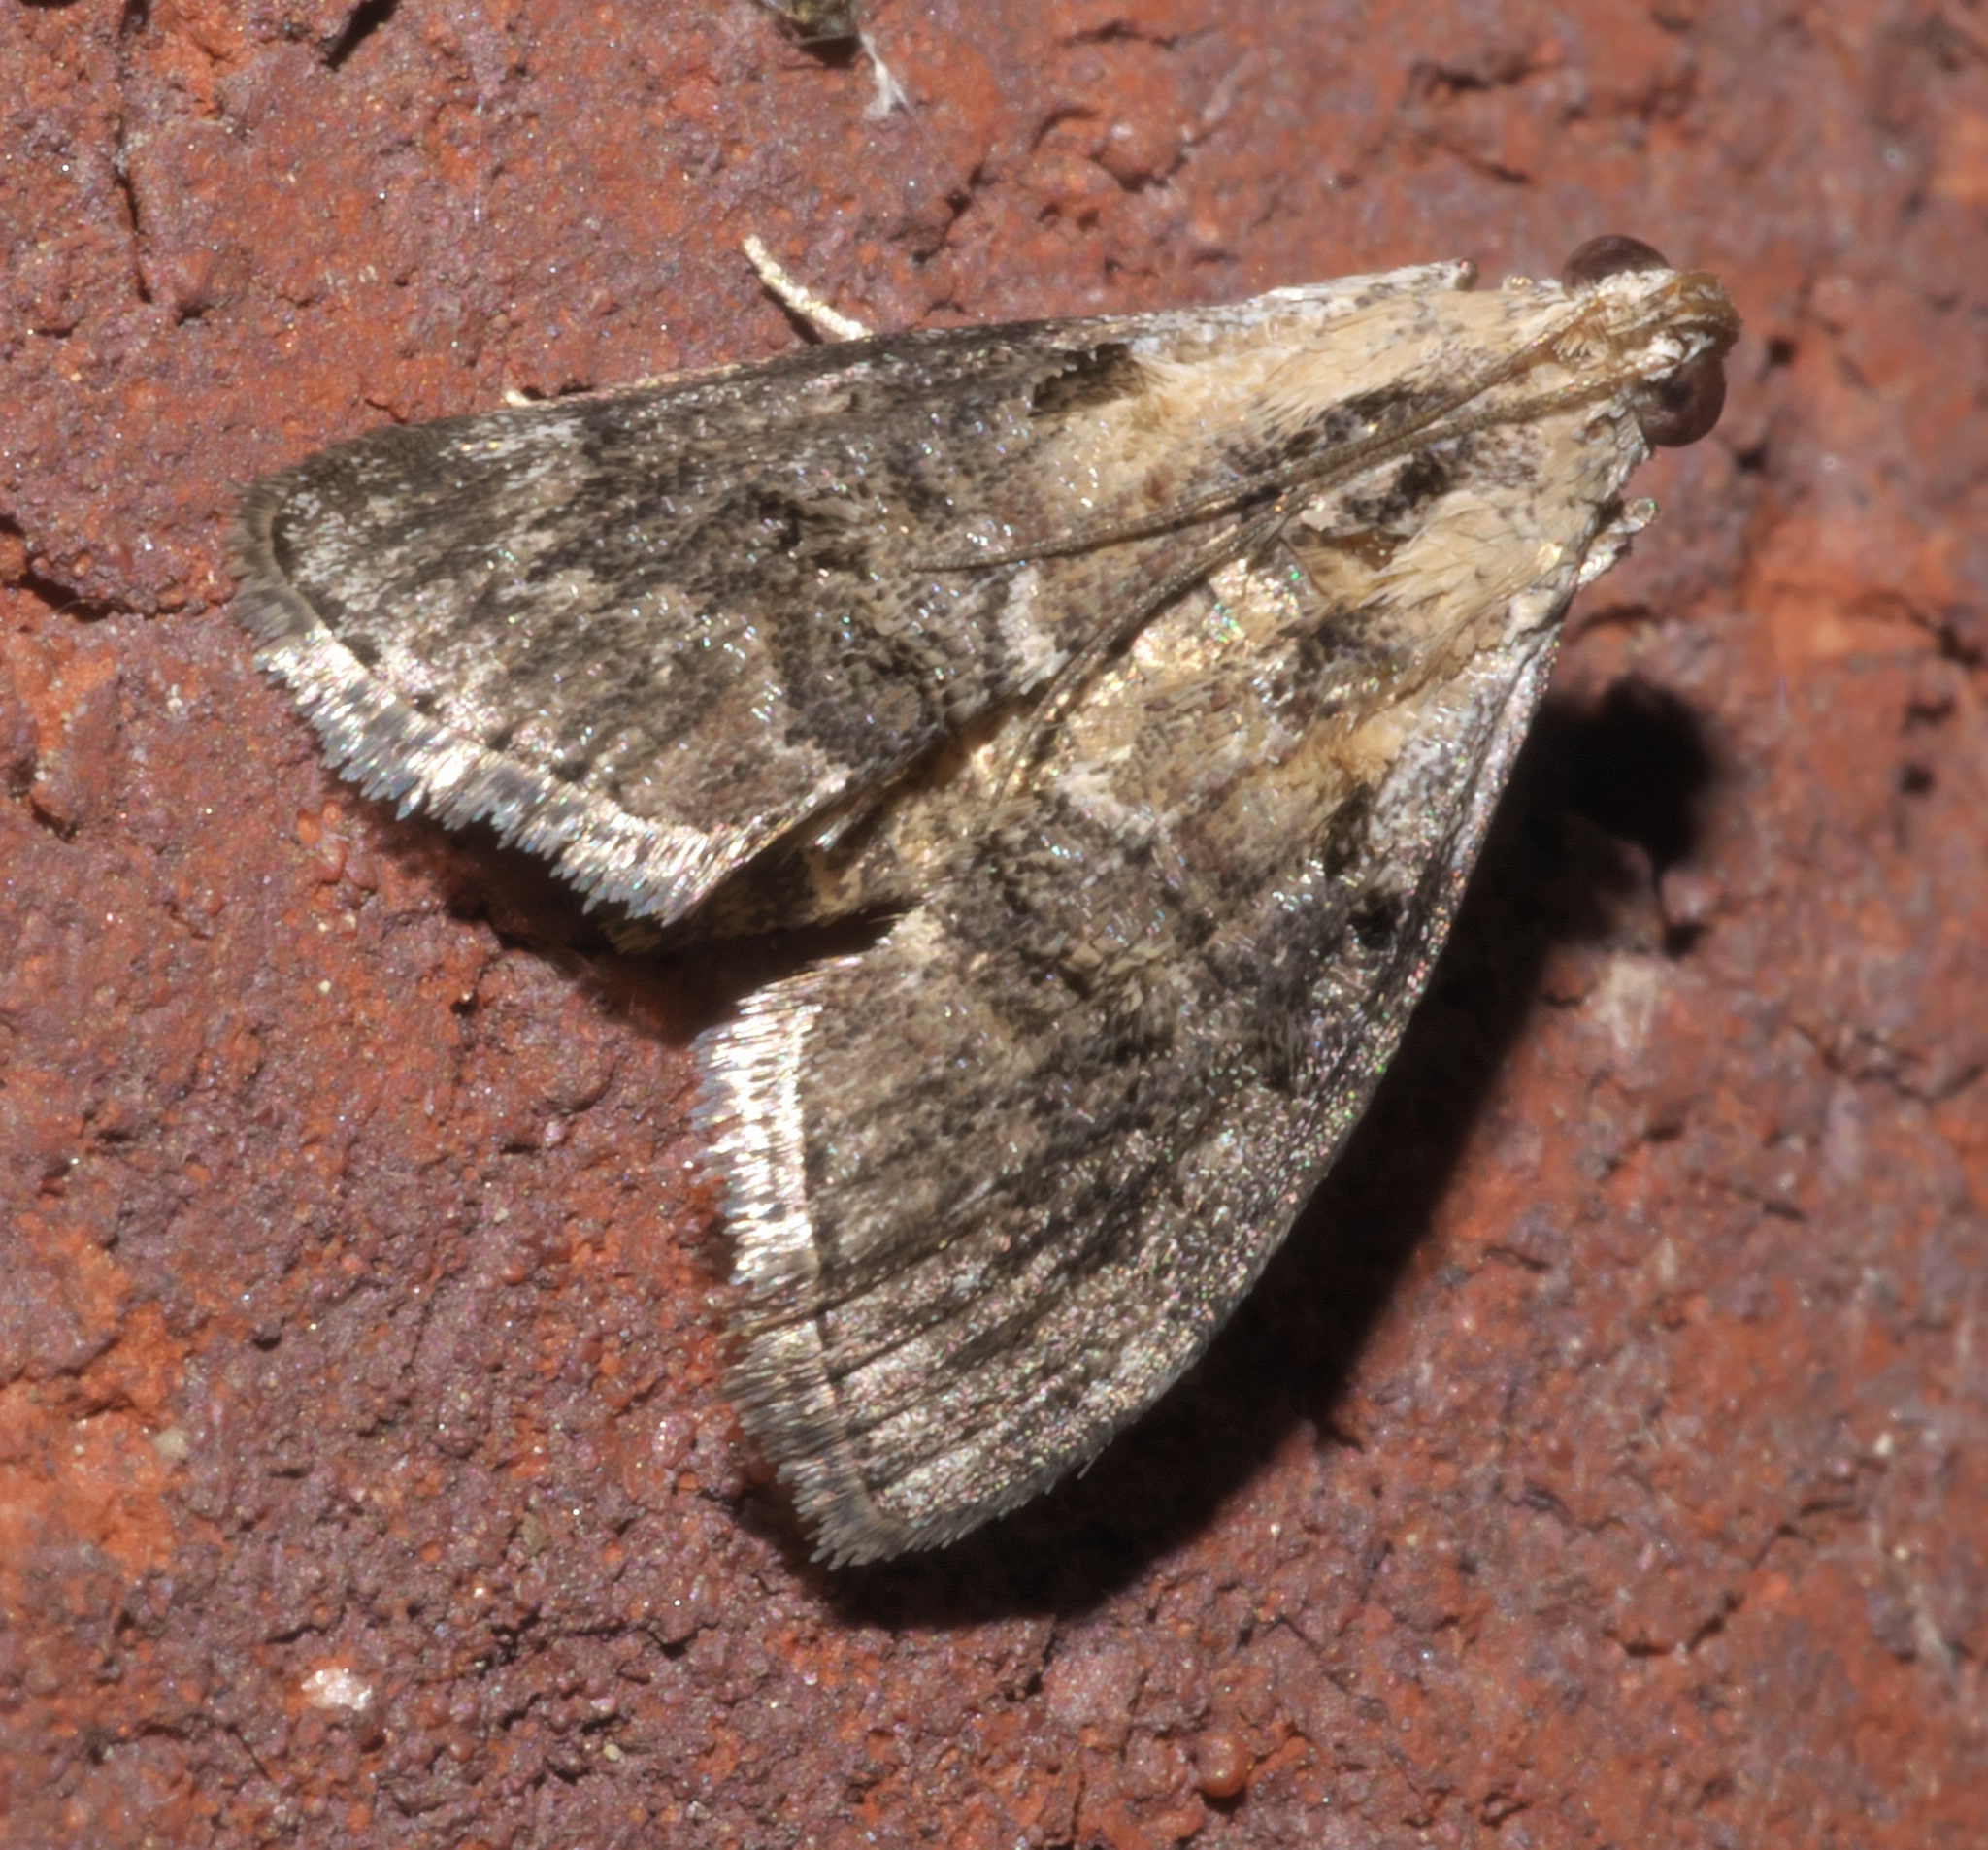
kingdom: Animalia
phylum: Arthropoda
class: Insecta
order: Lepidoptera
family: Pyralidae
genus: Pococera
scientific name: Pococera expandens
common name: Striped oak webworm moth
